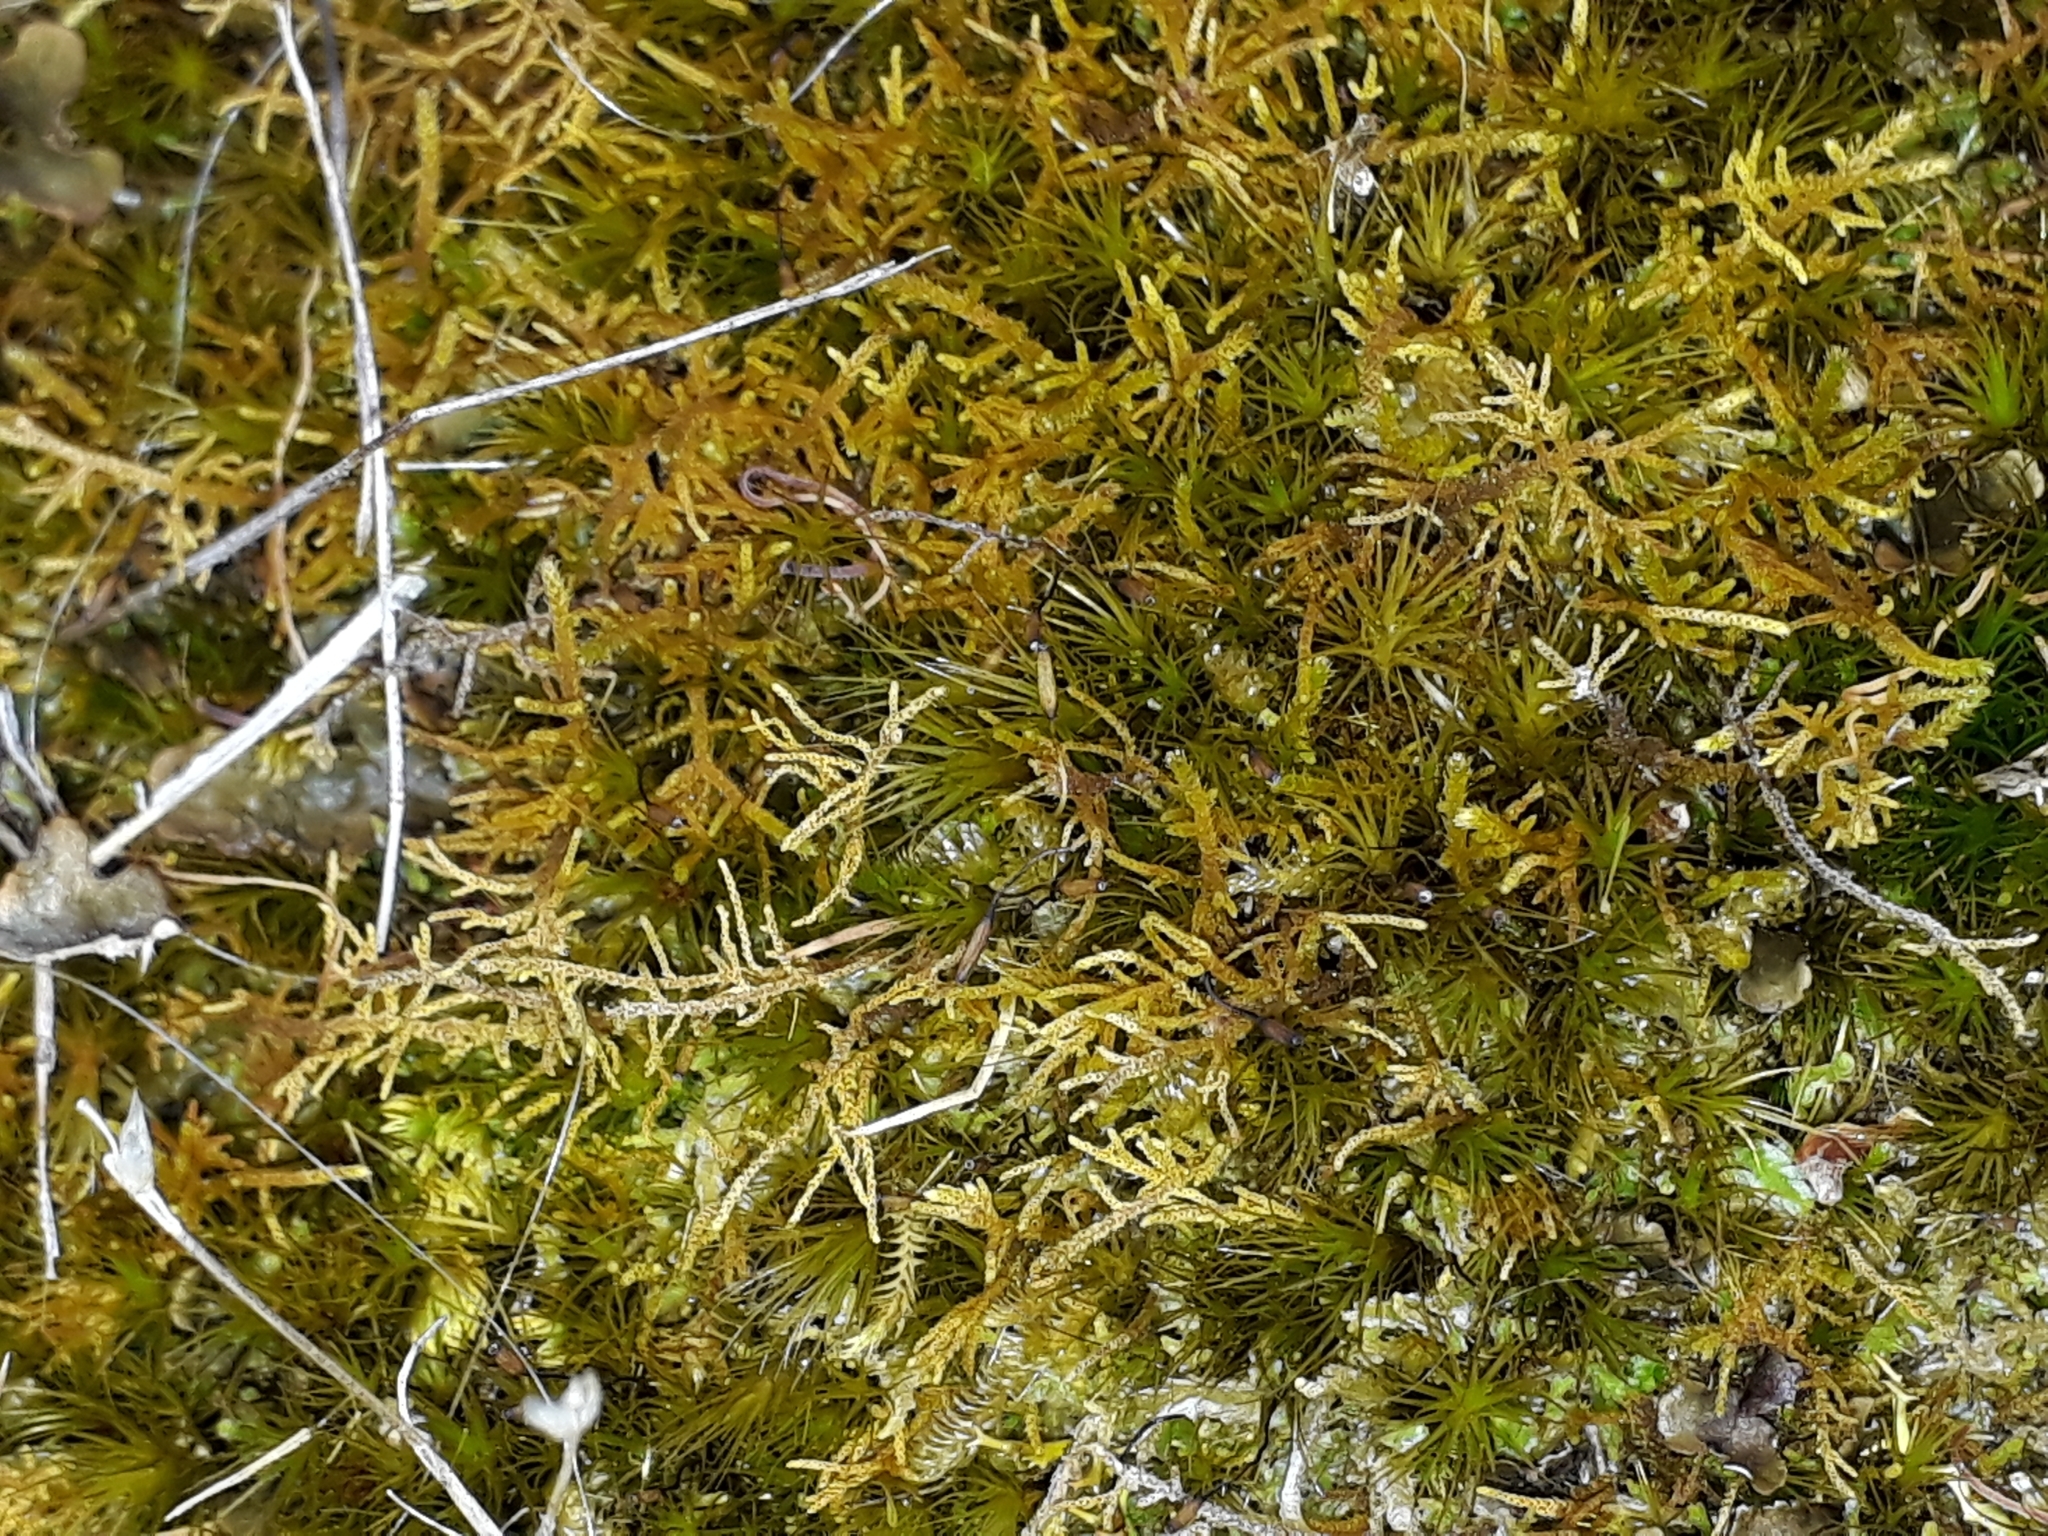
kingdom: Plantae
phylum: Bryophyta
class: Bryopsida
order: Hypnales
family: Thuidiaceae
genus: Thuidiopsis
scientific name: Thuidiopsis furfurosa
